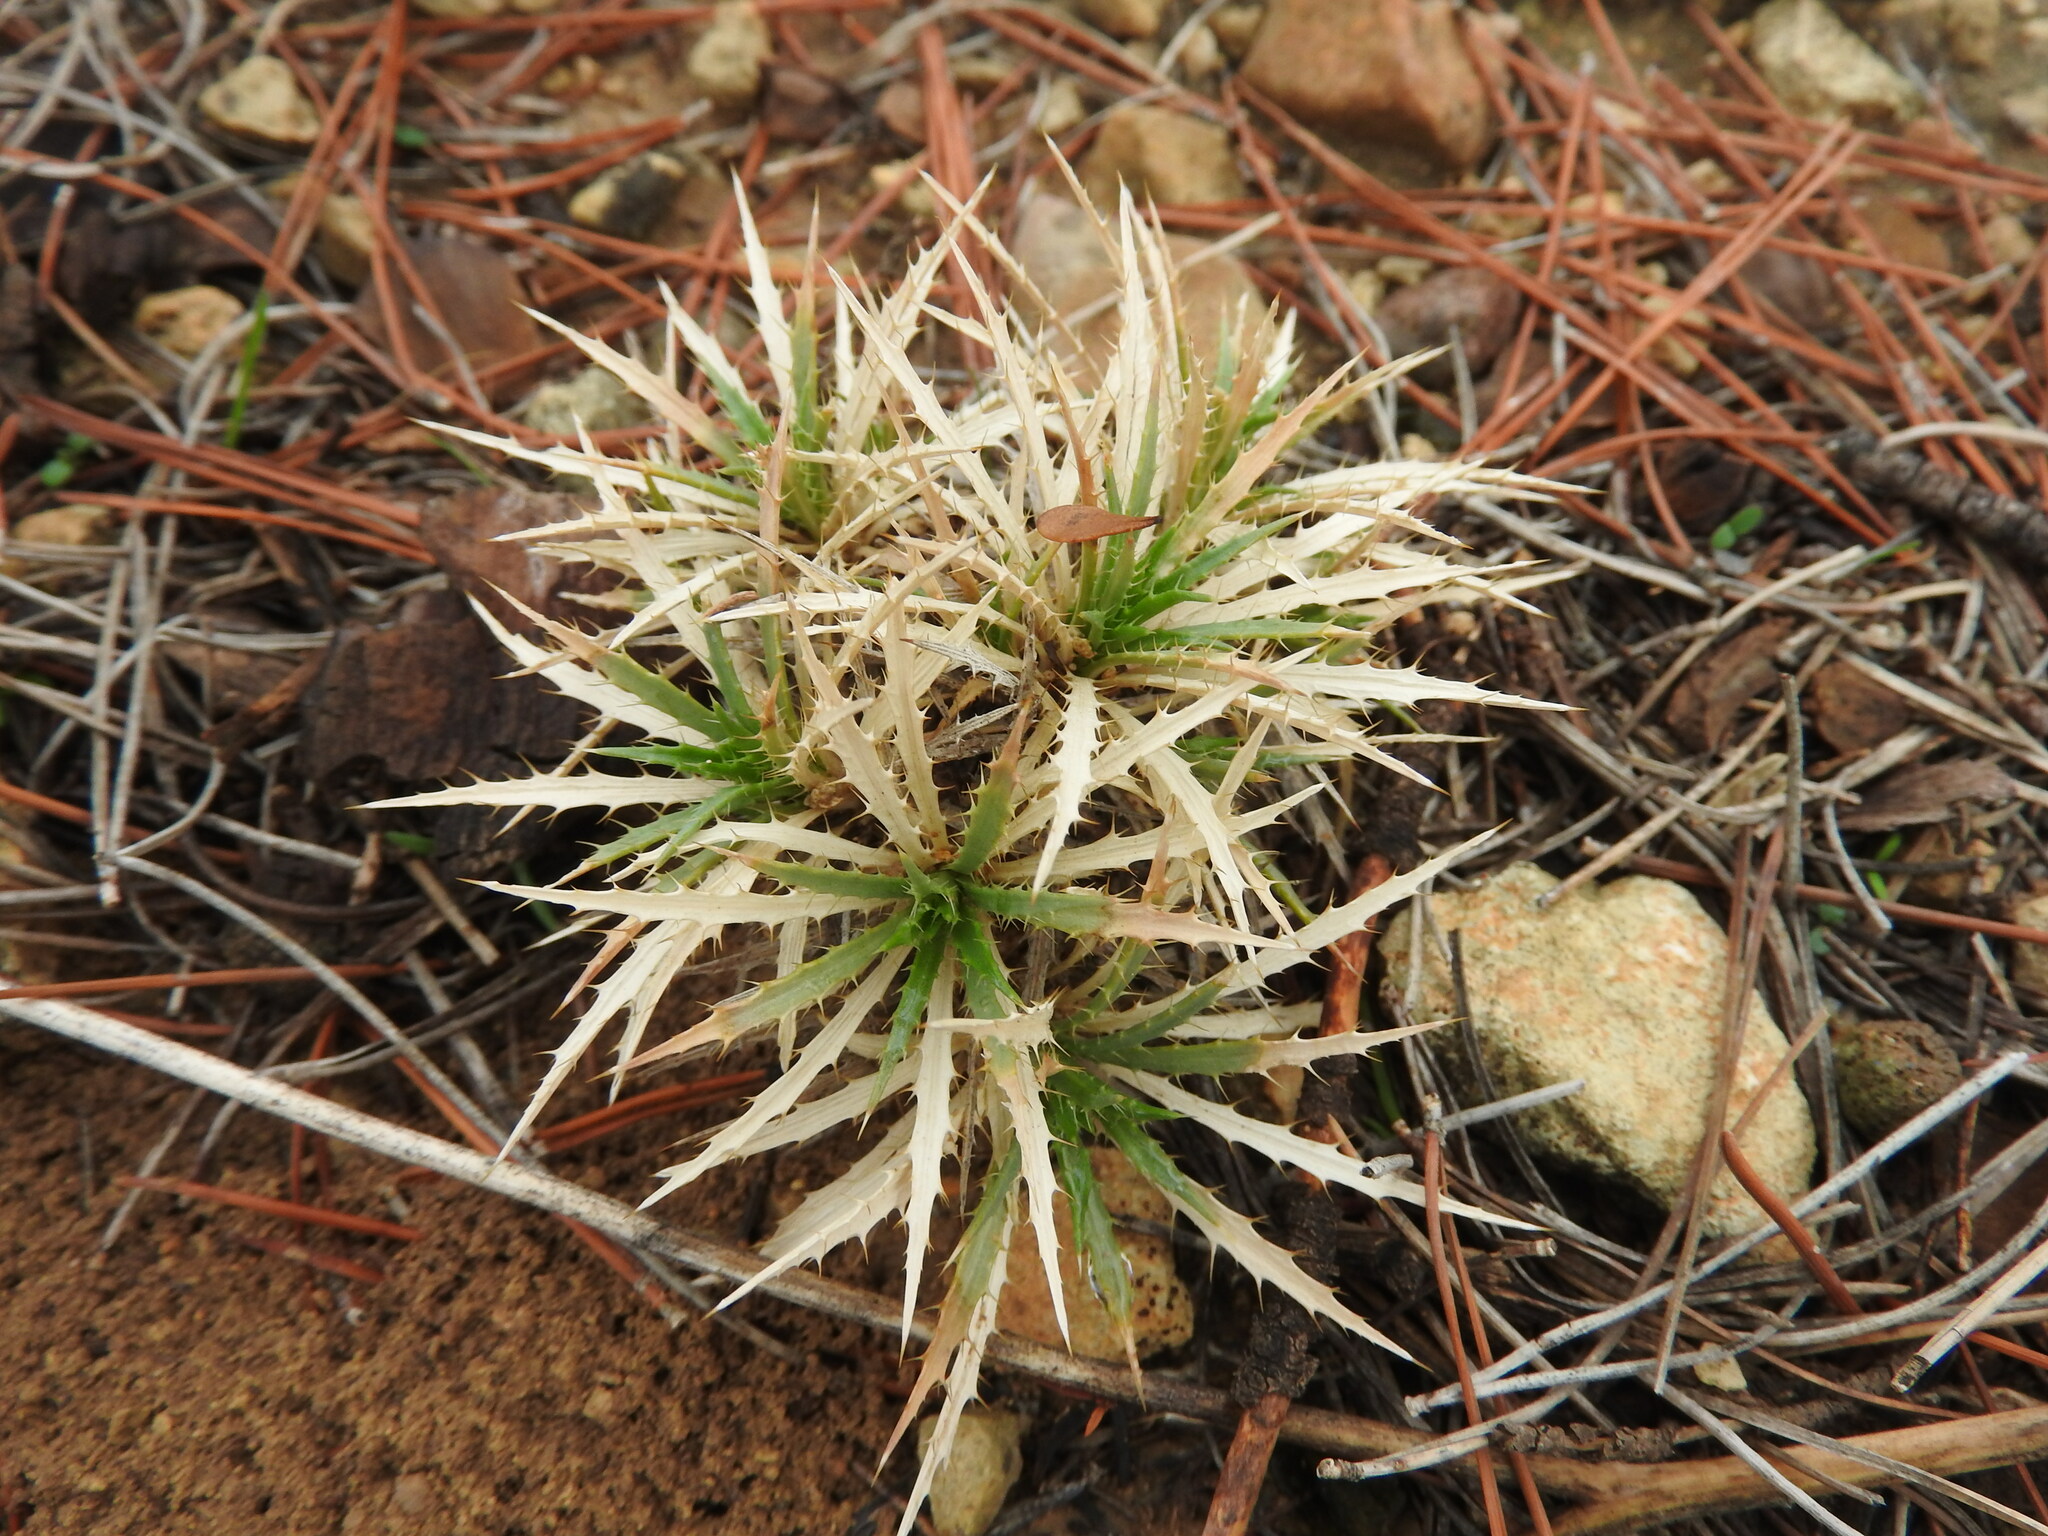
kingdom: Plantae
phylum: Tracheophyta
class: Magnoliopsida
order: Asterales
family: Asteraceae
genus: Atractylis
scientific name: Atractylis caespitosa
